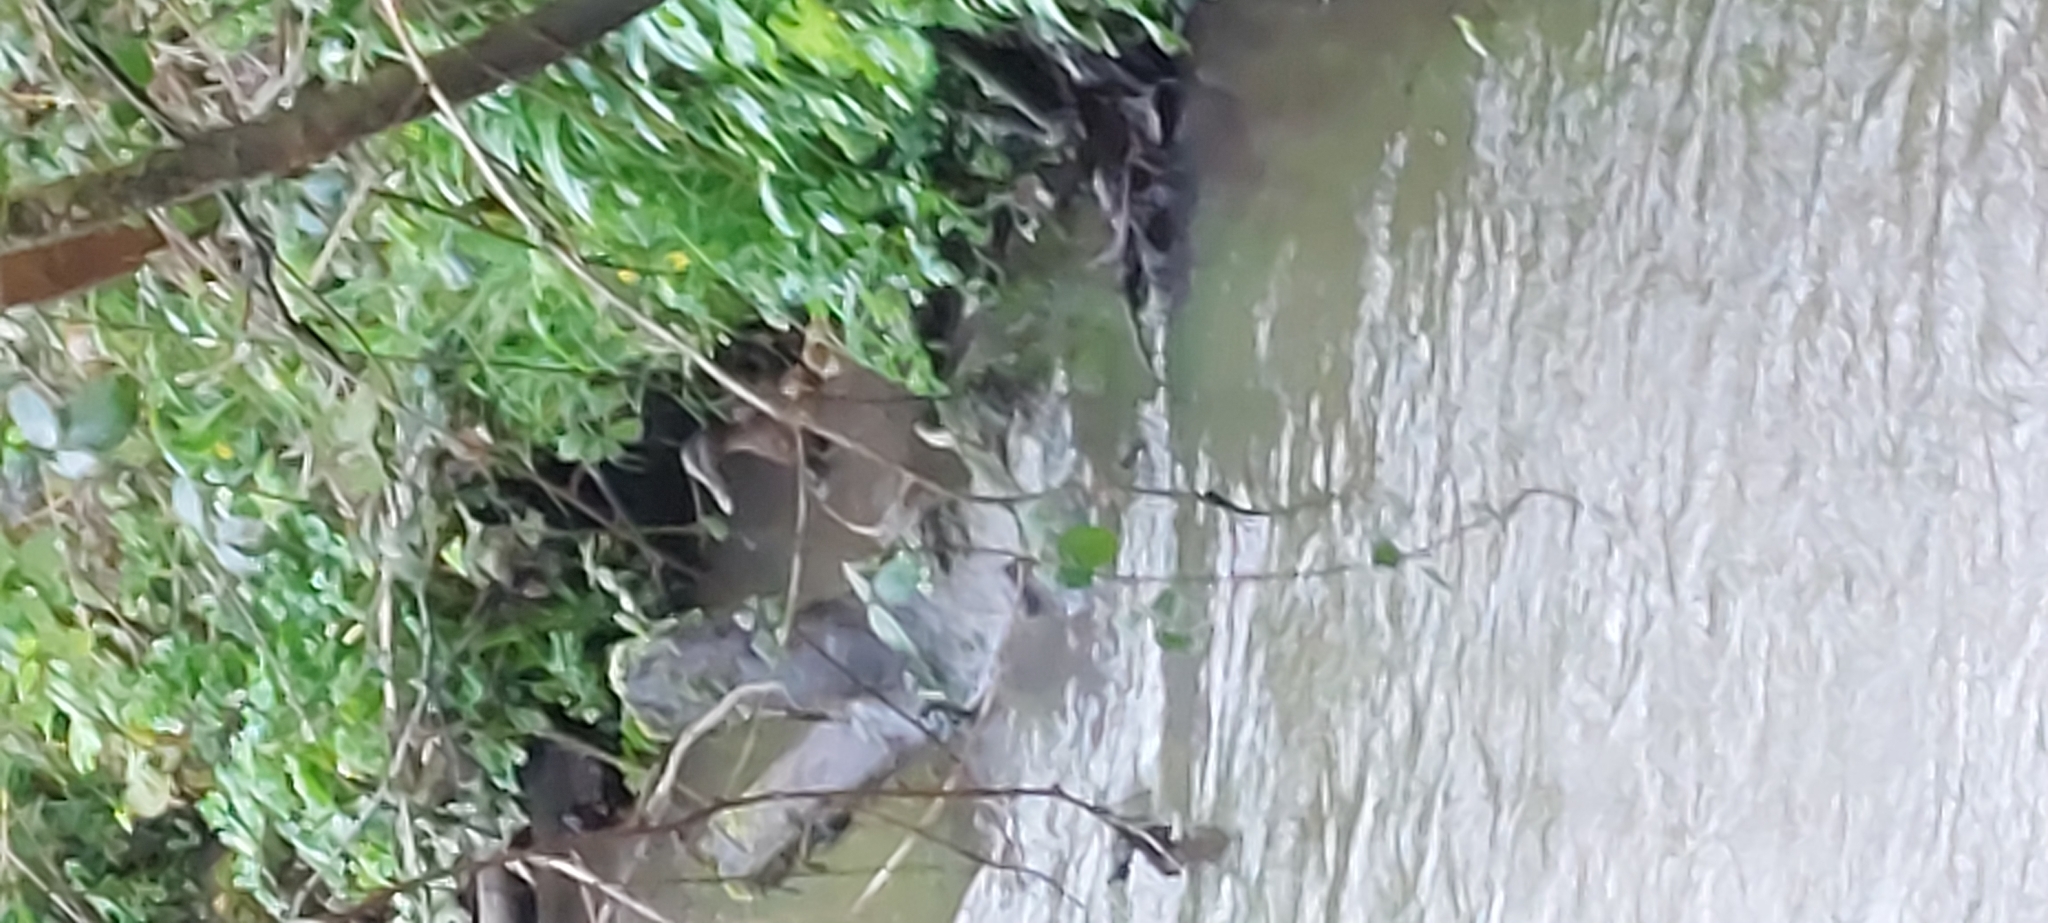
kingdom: Animalia
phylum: Chordata
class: Aves
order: Anseriformes
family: Anatidae
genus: Anas
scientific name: Anas platyrhynchos
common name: Mallard
